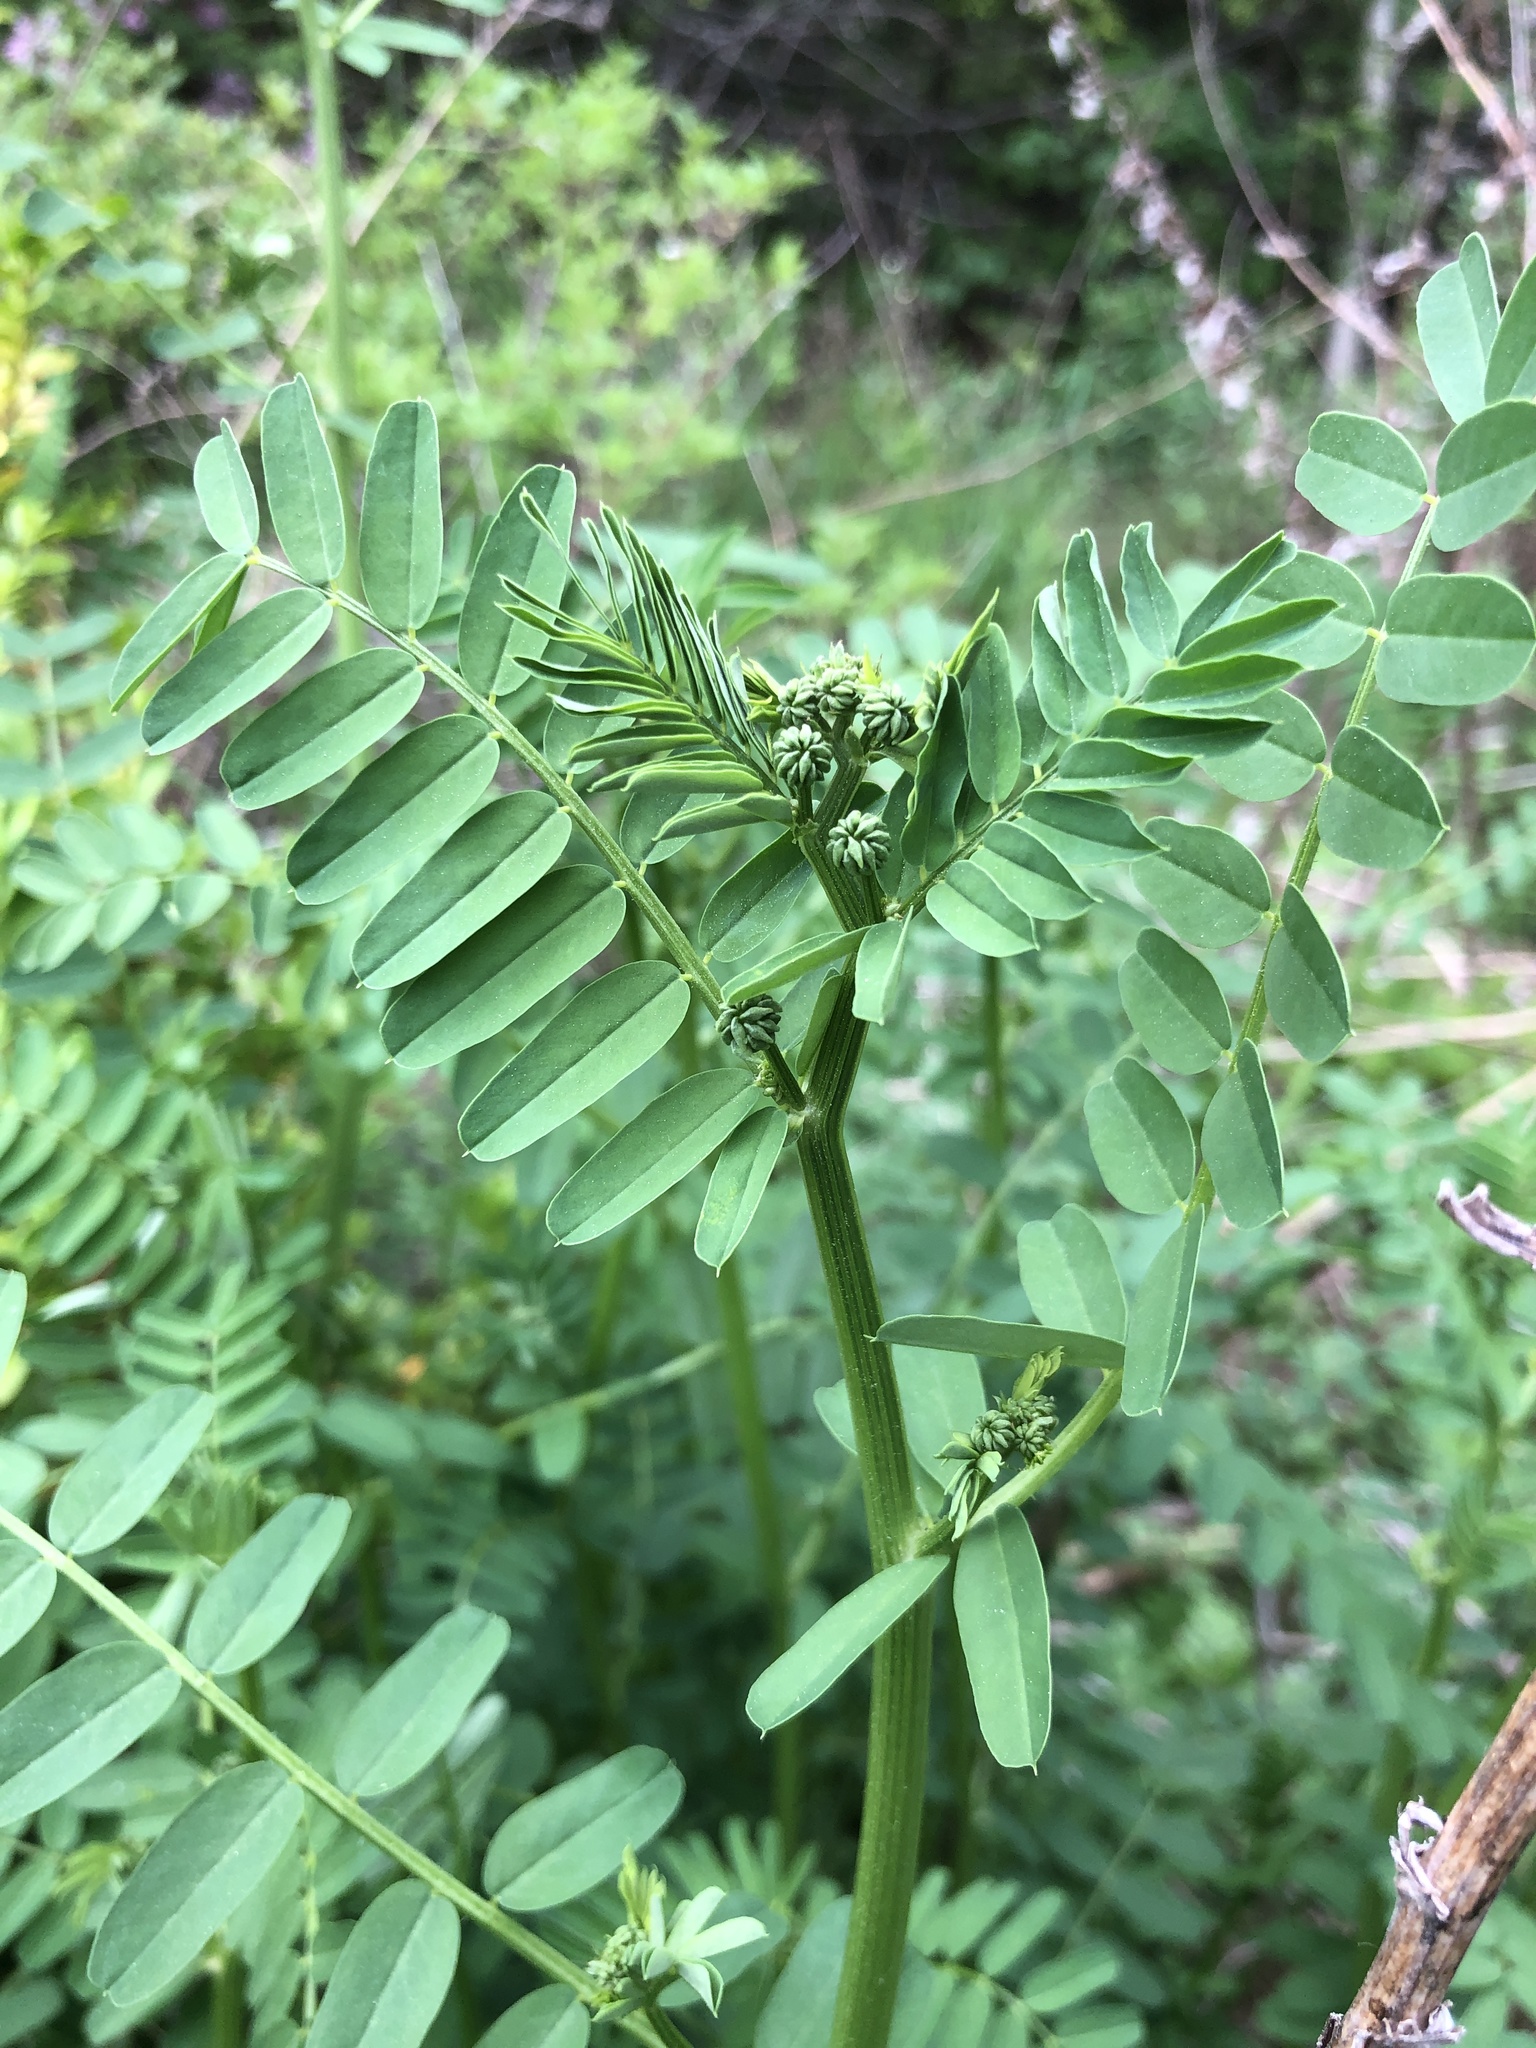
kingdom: Plantae
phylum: Tracheophyta
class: Magnoliopsida
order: Fabales
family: Fabaceae
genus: Coronilla
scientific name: Coronilla varia
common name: Crownvetch
